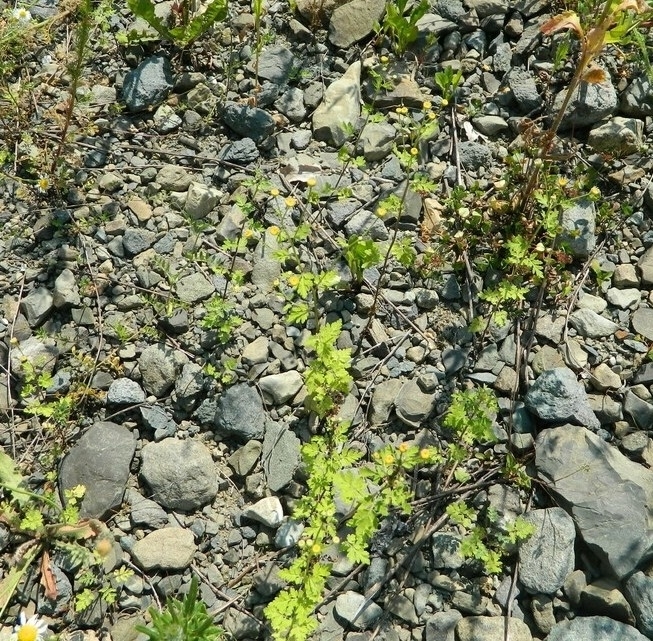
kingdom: Plantae
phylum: Tracheophyta
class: Magnoliopsida
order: Asterales
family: Asteraceae
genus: Tanacetum
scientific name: Tanacetum partheniifolium
